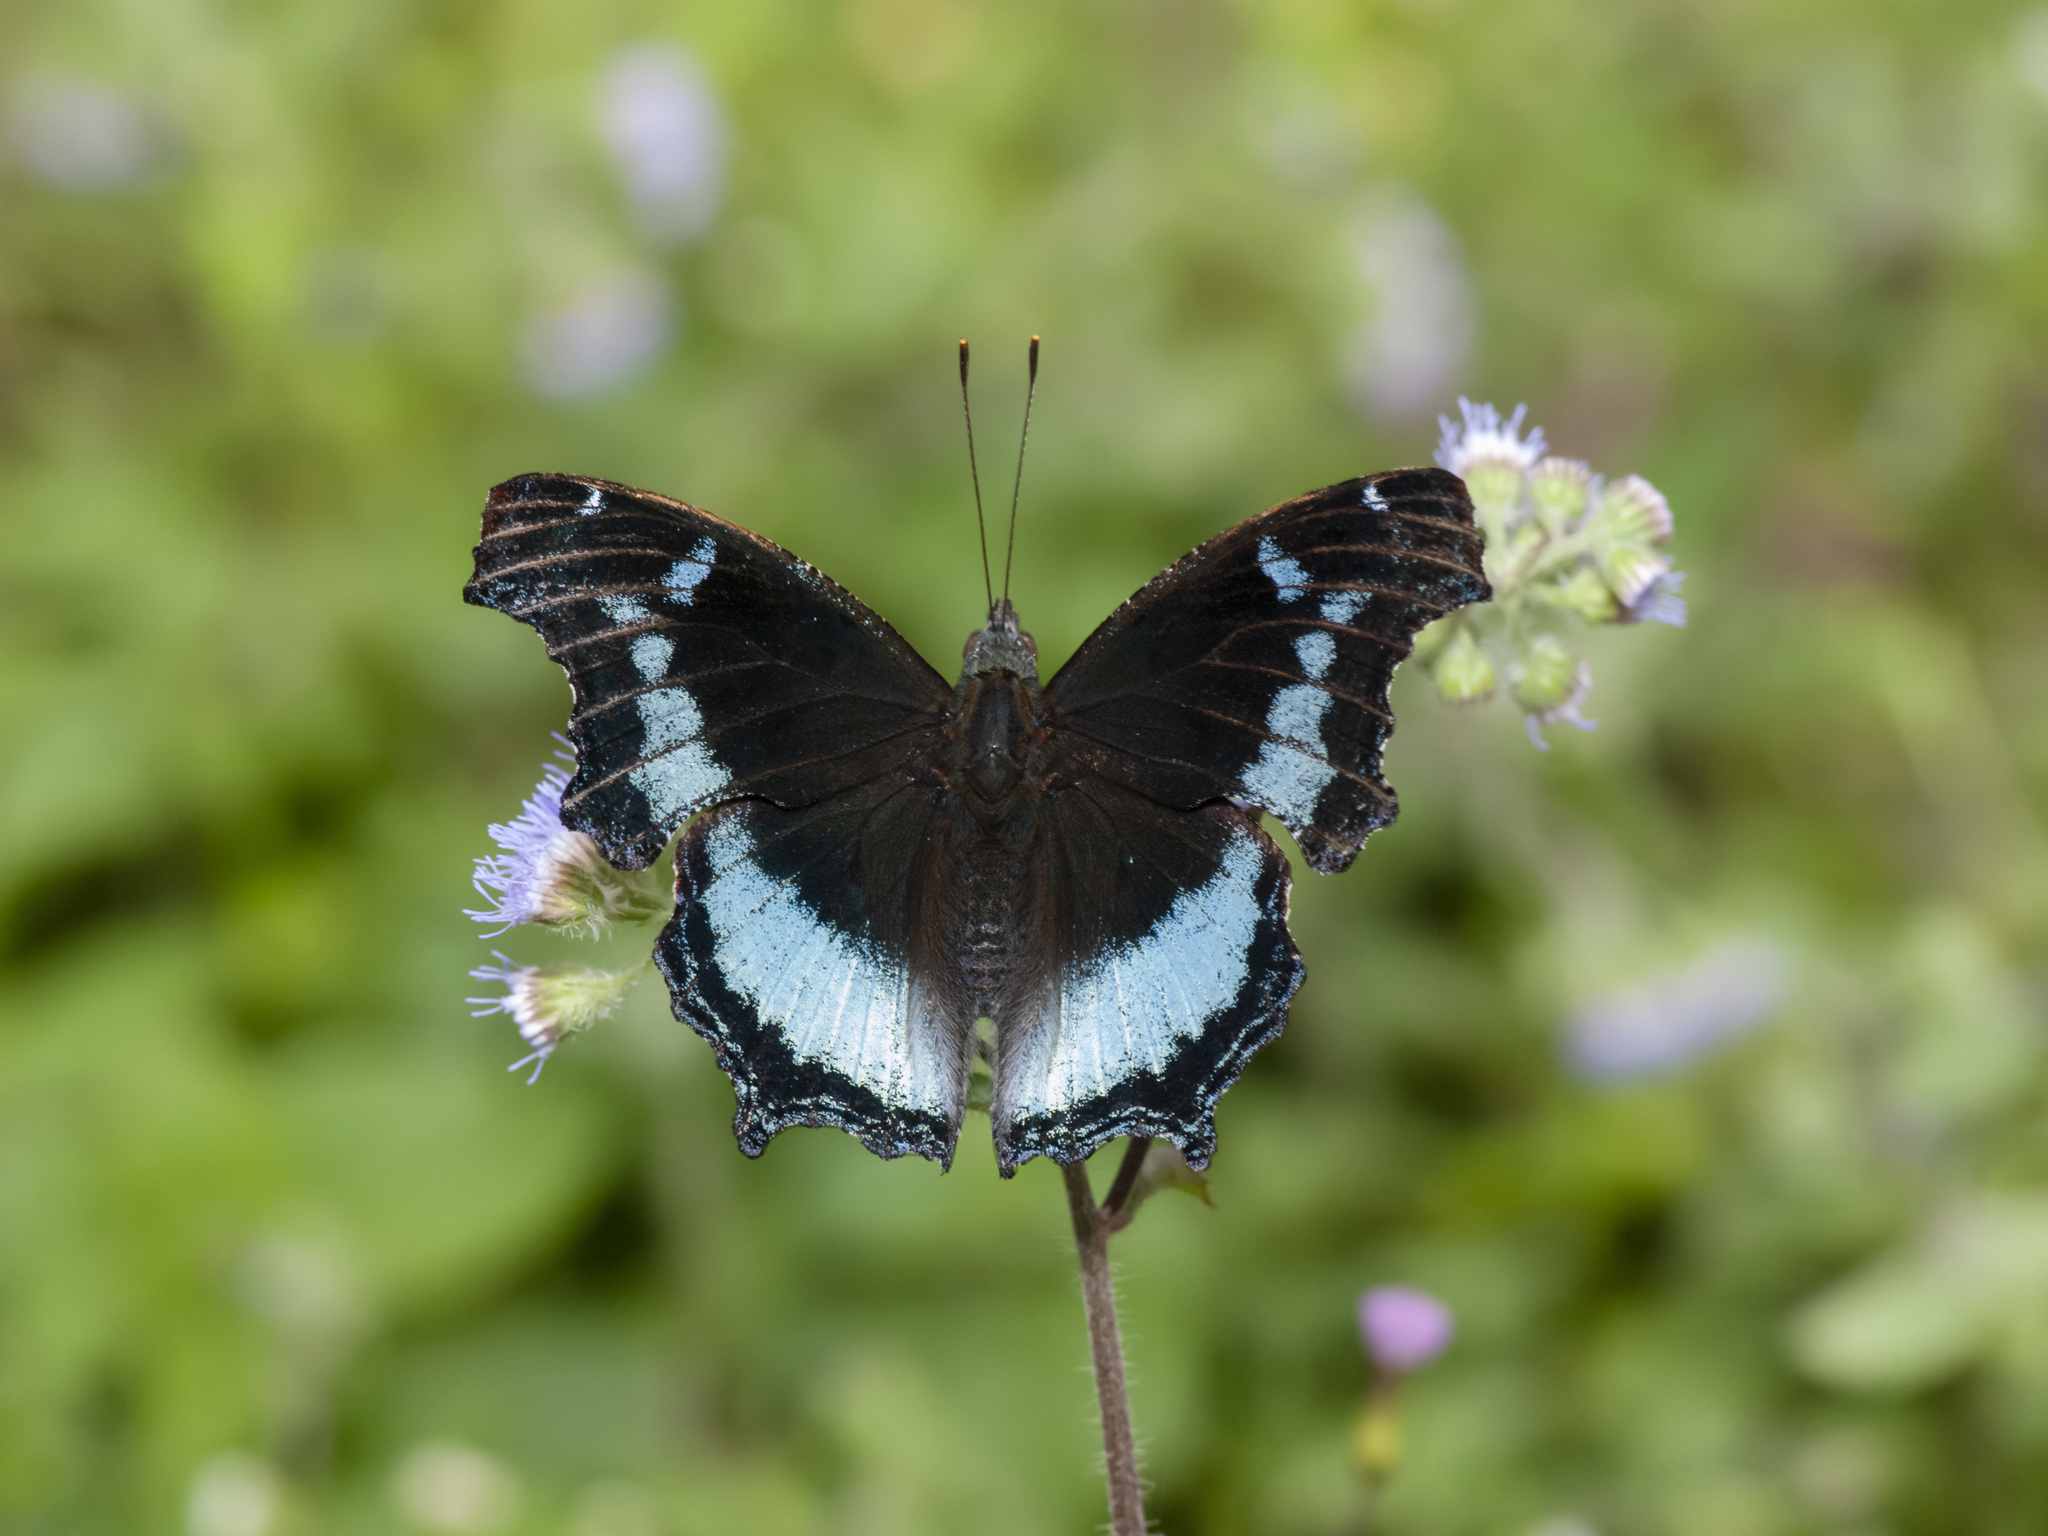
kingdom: Animalia
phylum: Arthropoda
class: Insecta
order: Lepidoptera
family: Nymphalidae
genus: Vanessa
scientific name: Vanessa Kaniska canace
